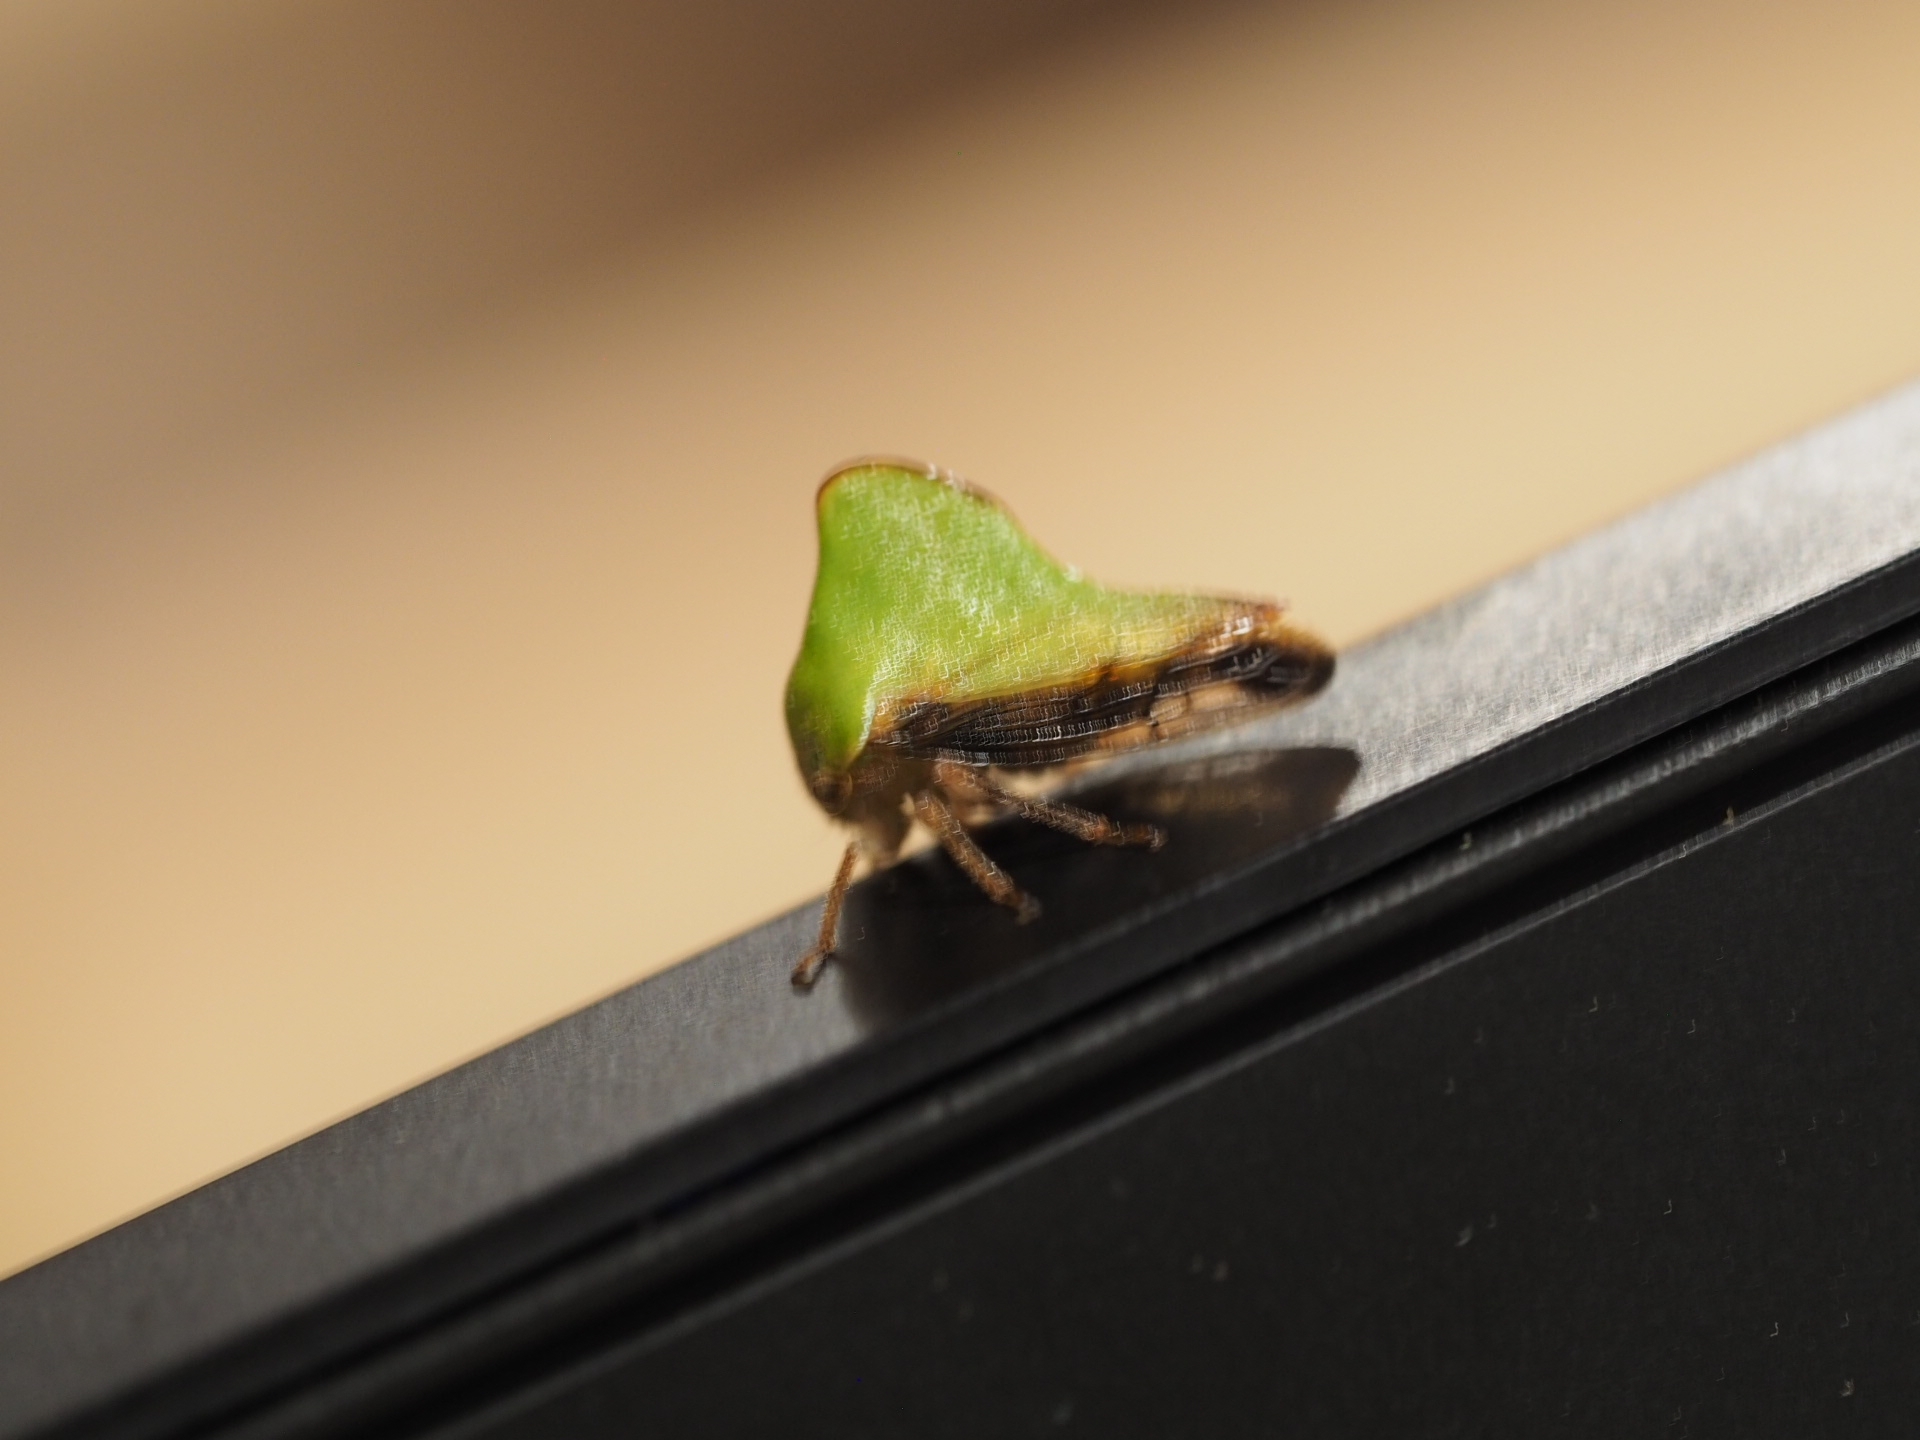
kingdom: Animalia
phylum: Arthropoda
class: Insecta
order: Hemiptera
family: Membracidae
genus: Helonica
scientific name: Helonica excelsa
